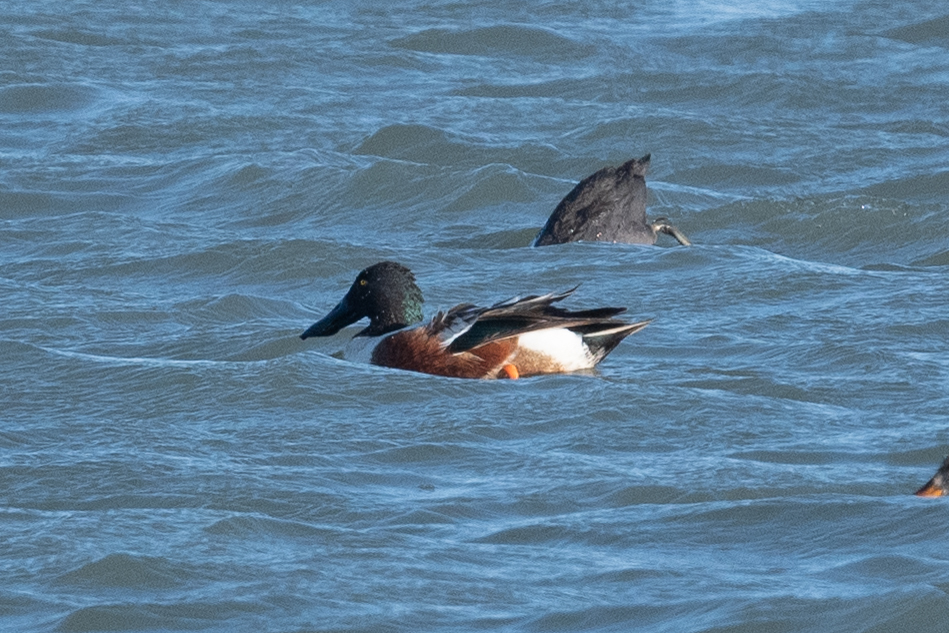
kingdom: Animalia
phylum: Chordata
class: Aves
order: Anseriformes
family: Anatidae
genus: Spatula
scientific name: Spatula clypeata
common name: Northern shoveler
